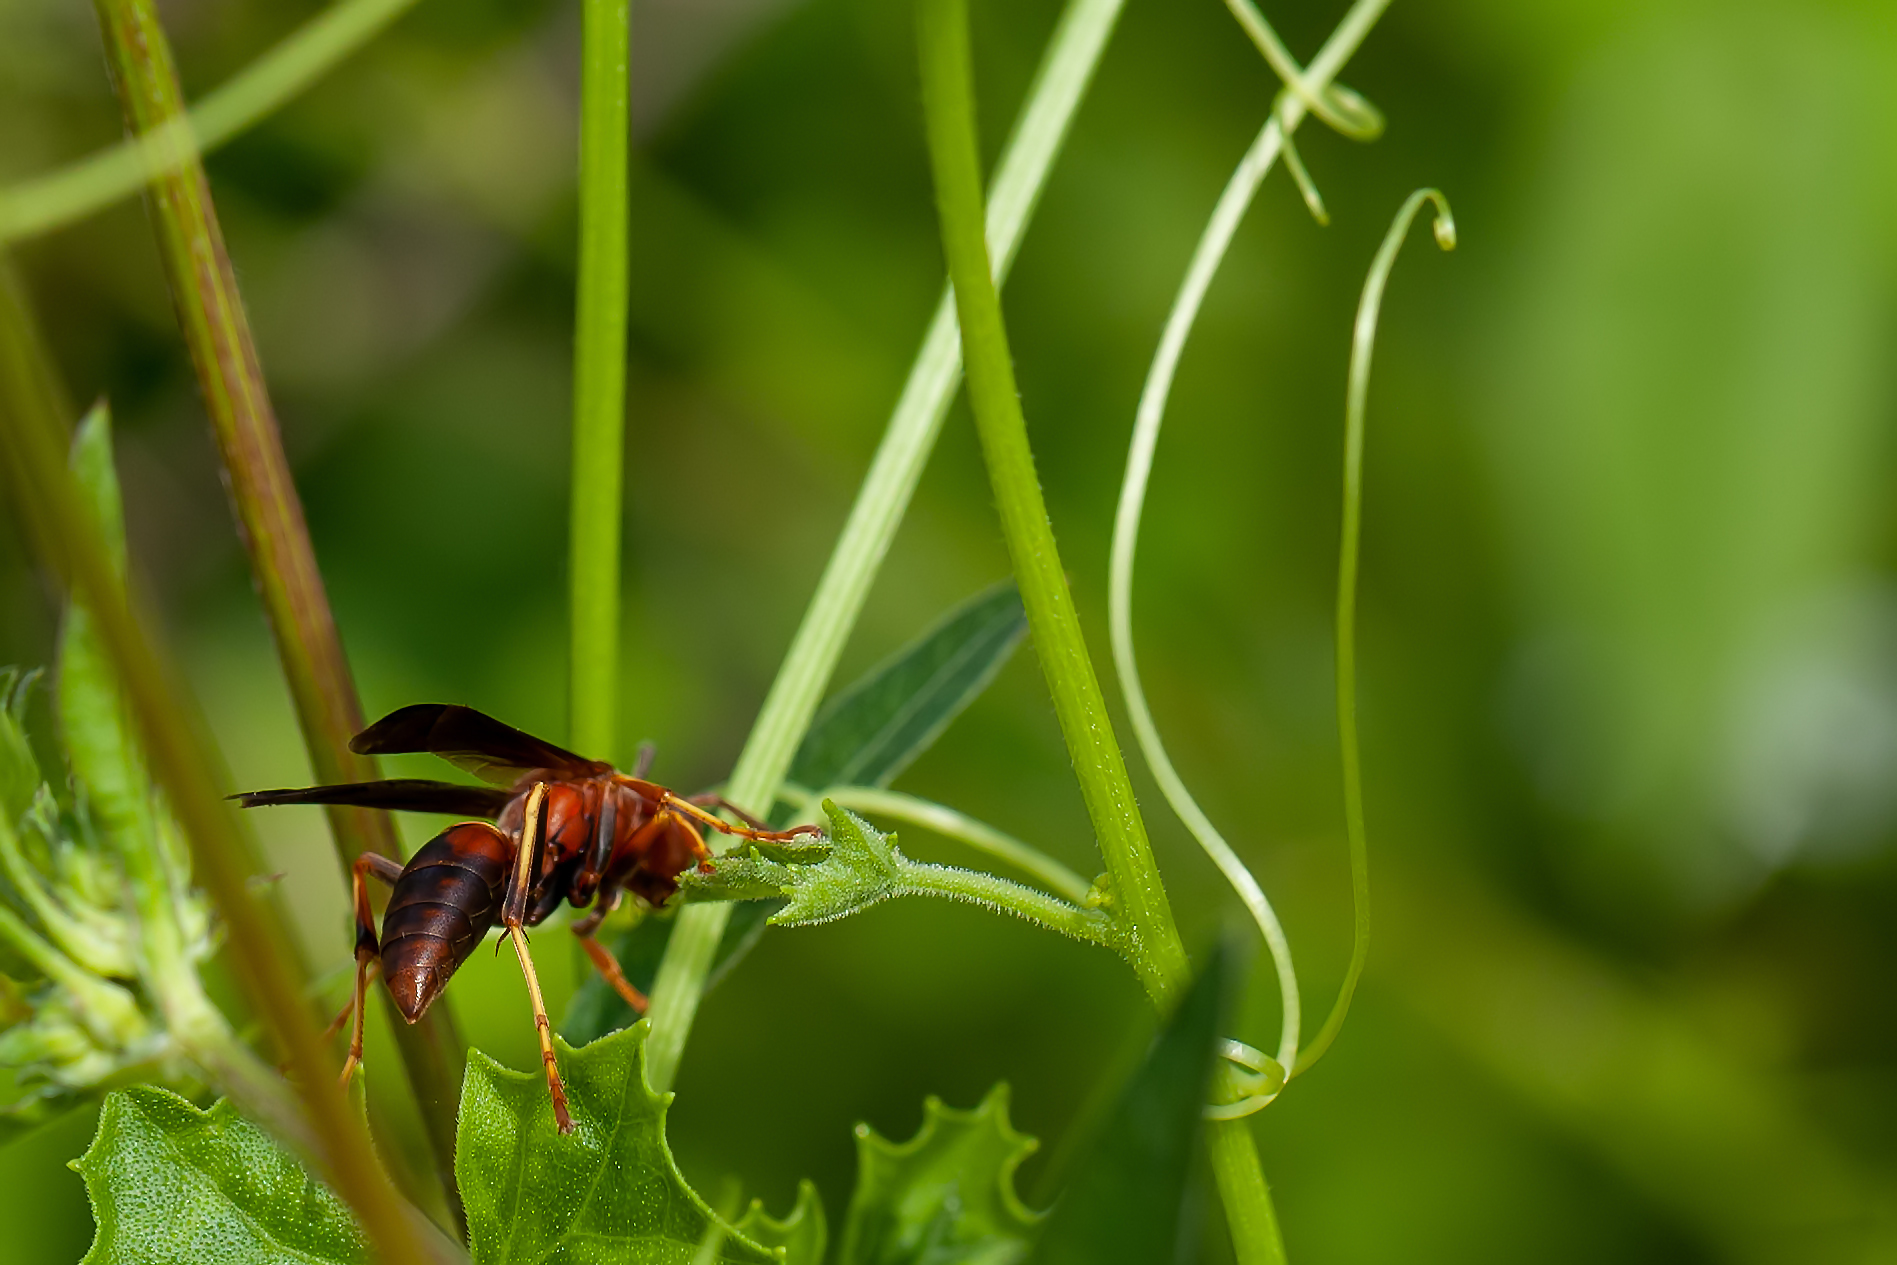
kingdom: Animalia
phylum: Arthropoda
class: Insecta
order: Hymenoptera
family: Eumenidae
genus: Polistes
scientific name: Polistes fuscatus
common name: Dark paper wasp
